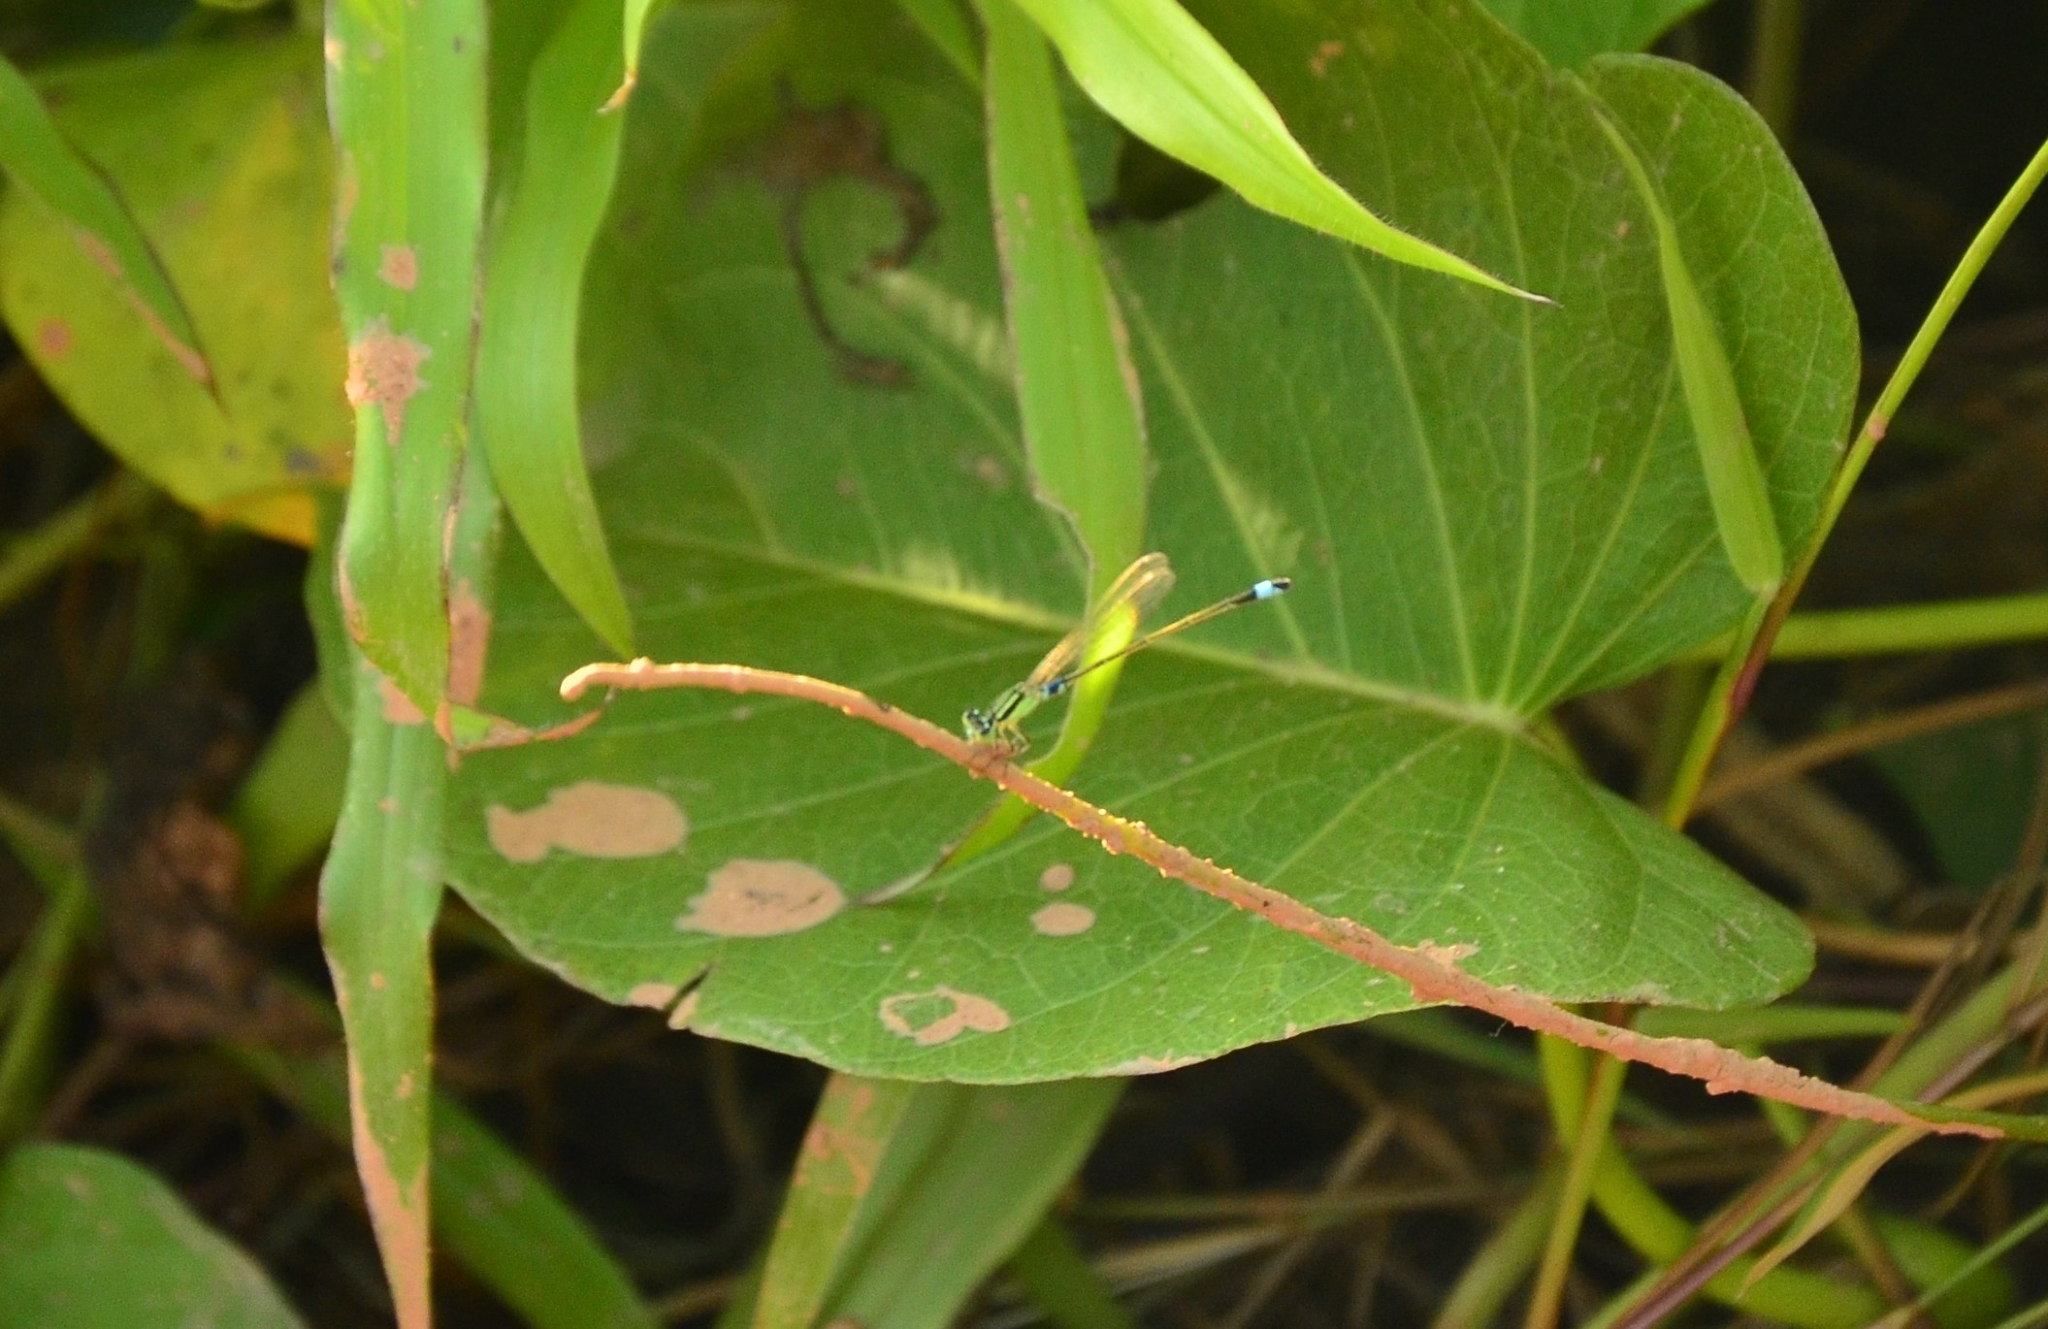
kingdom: Animalia
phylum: Arthropoda
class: Insecta
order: Odonata
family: Coenagrionidae
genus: Ischnura
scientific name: Ischnura senegalensis
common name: Tropical bluetail
